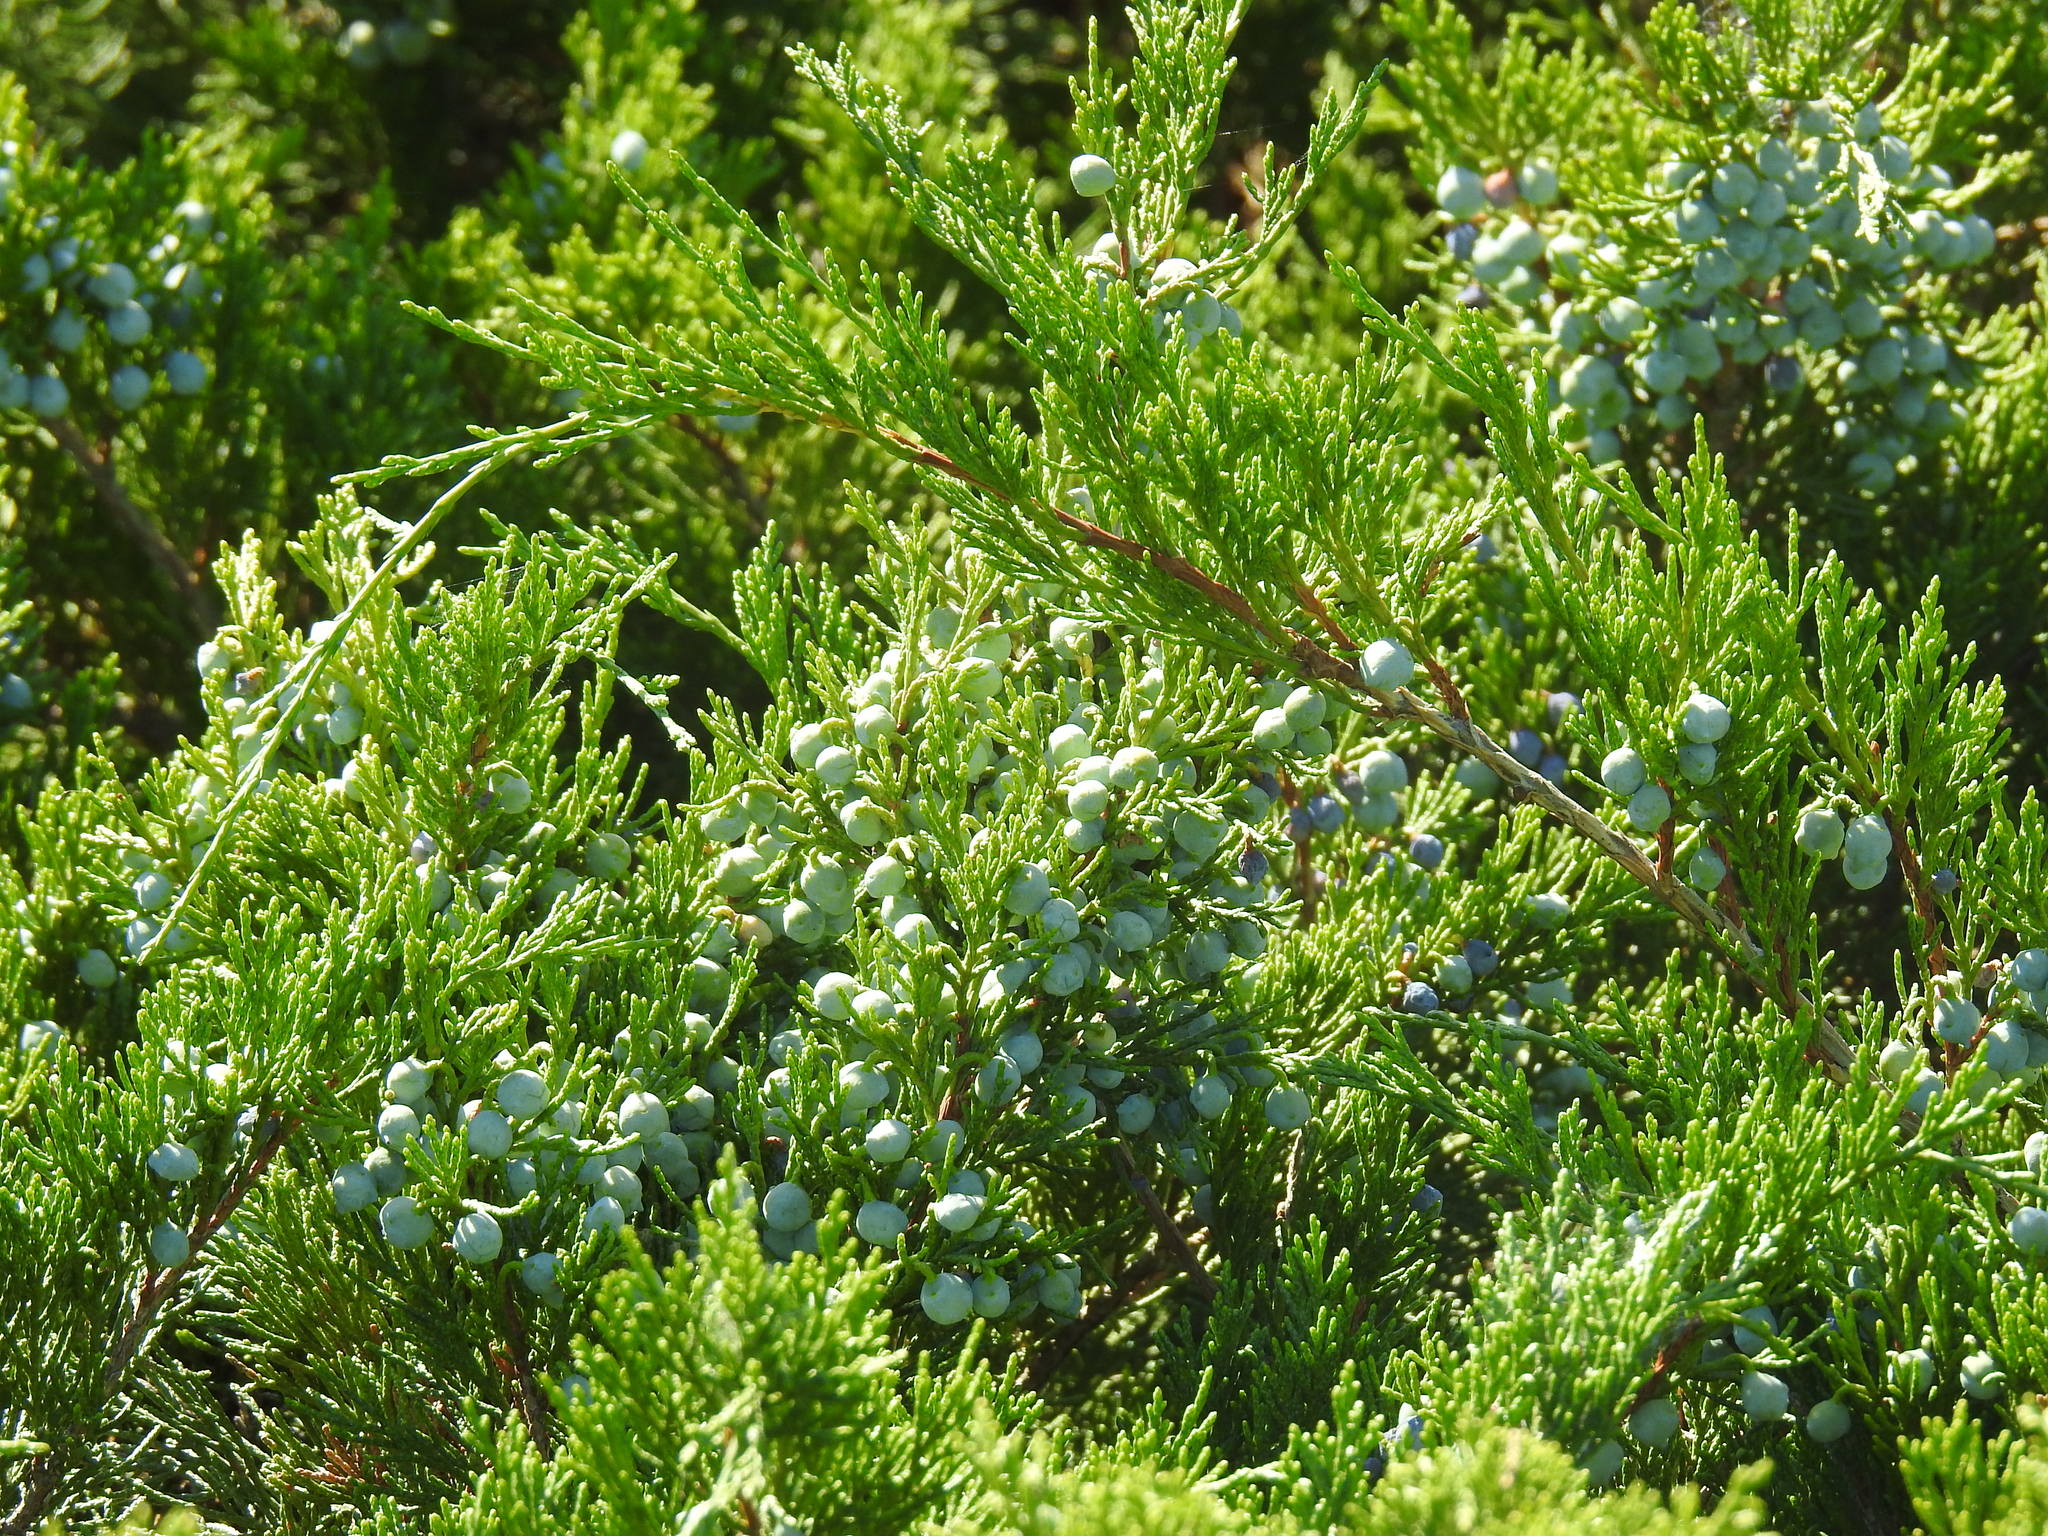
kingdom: Plantae
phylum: Tracheophyta
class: Pinopsida
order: Pinales
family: Cupressaceae
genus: Juniperus
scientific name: Juniperus sabina
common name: Savin
